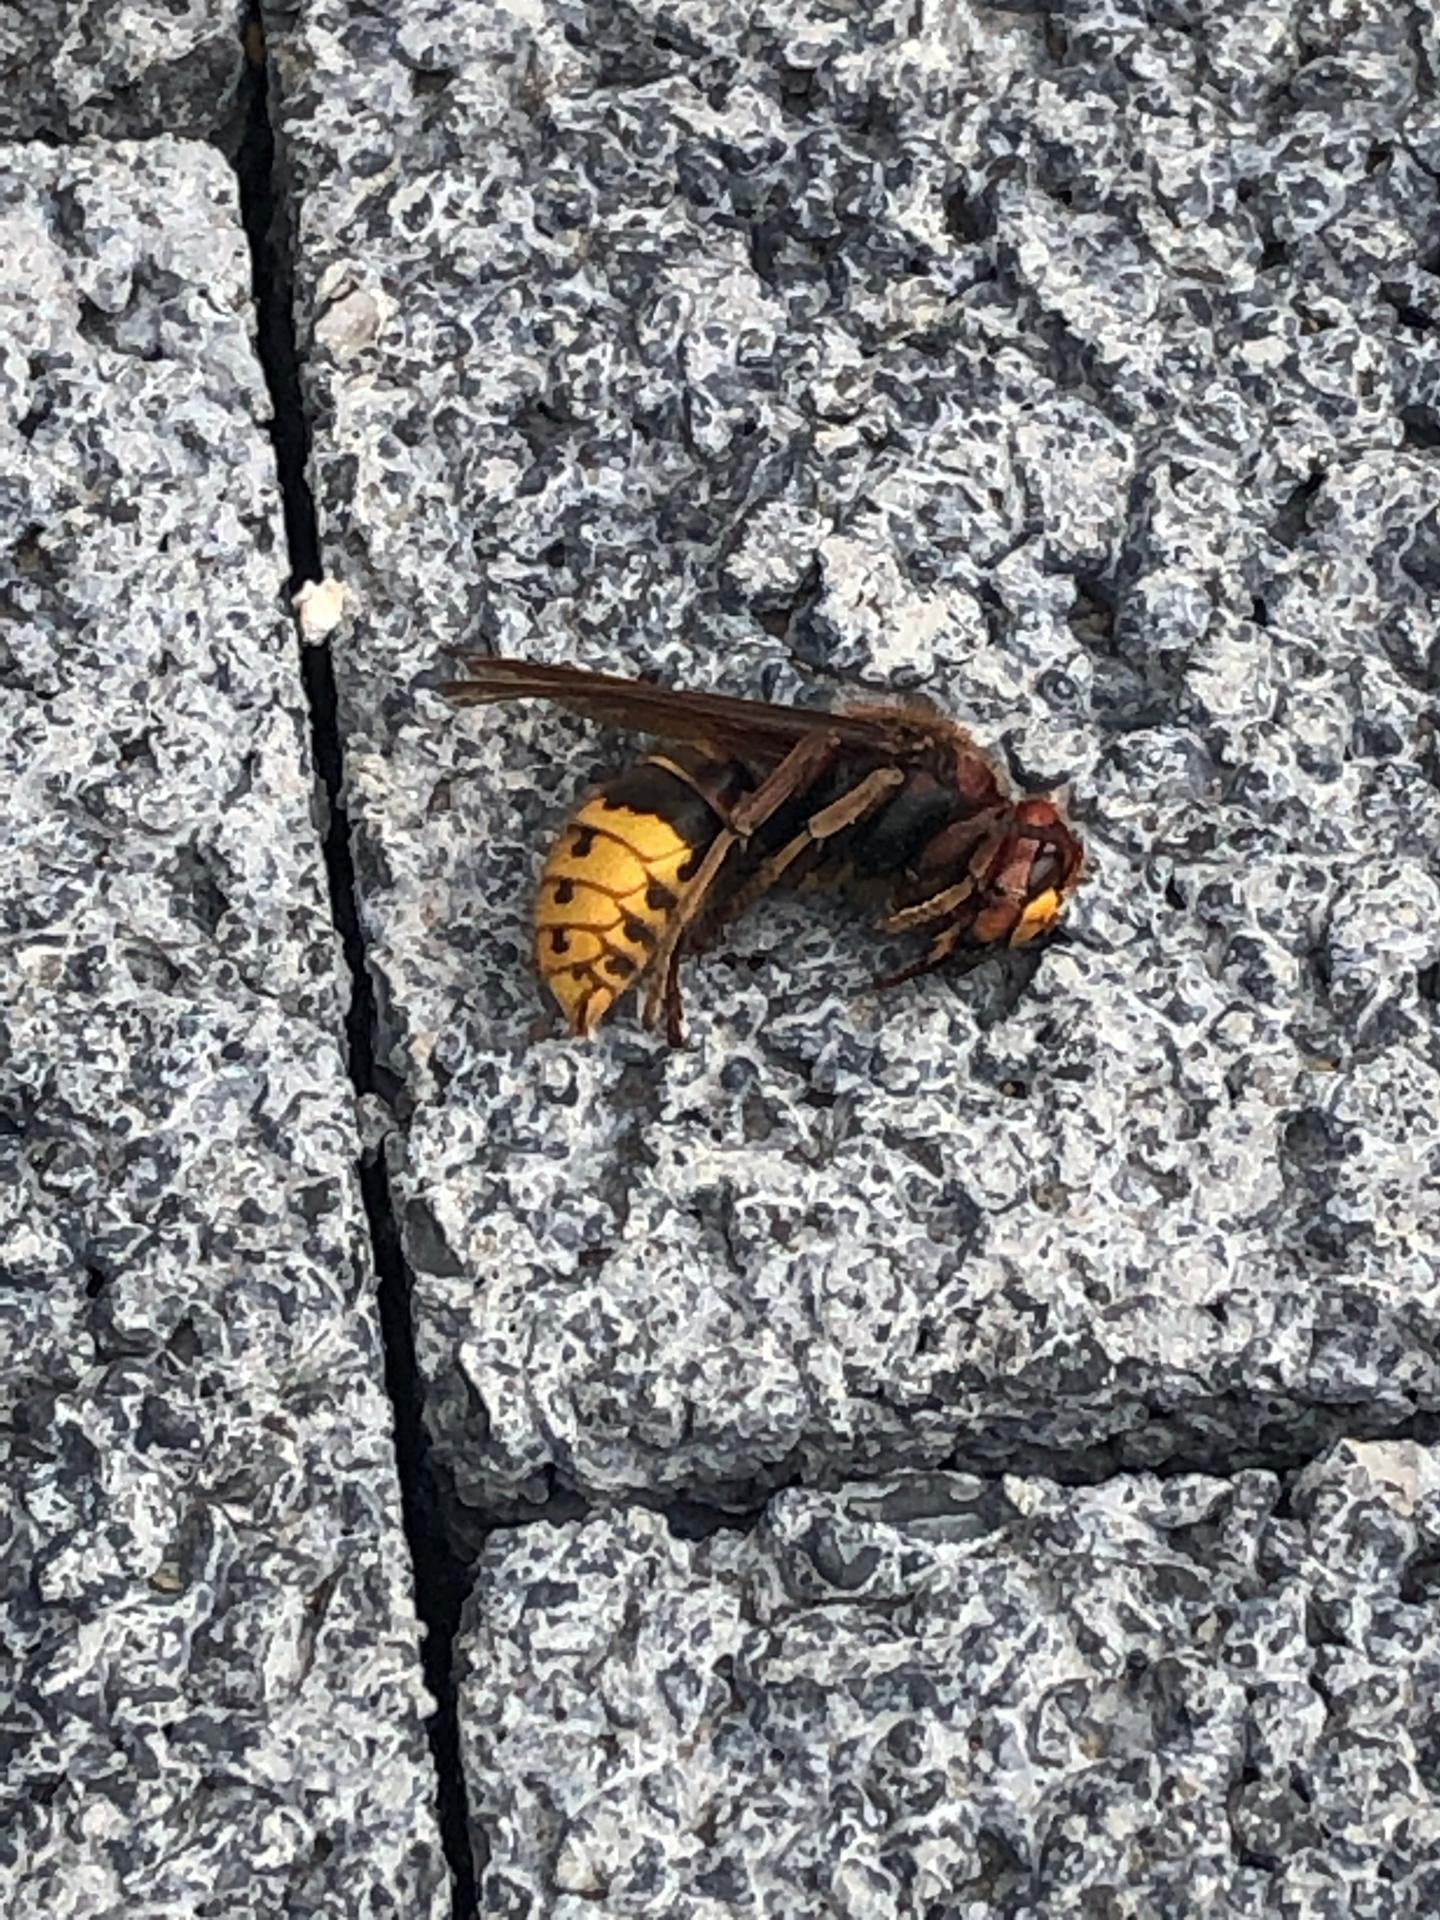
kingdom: Animalia
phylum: Arthropoda
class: Insecta
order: Hymenoptera
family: Vespidae
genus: Vespa
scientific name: Vespa crabro
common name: Hornet
